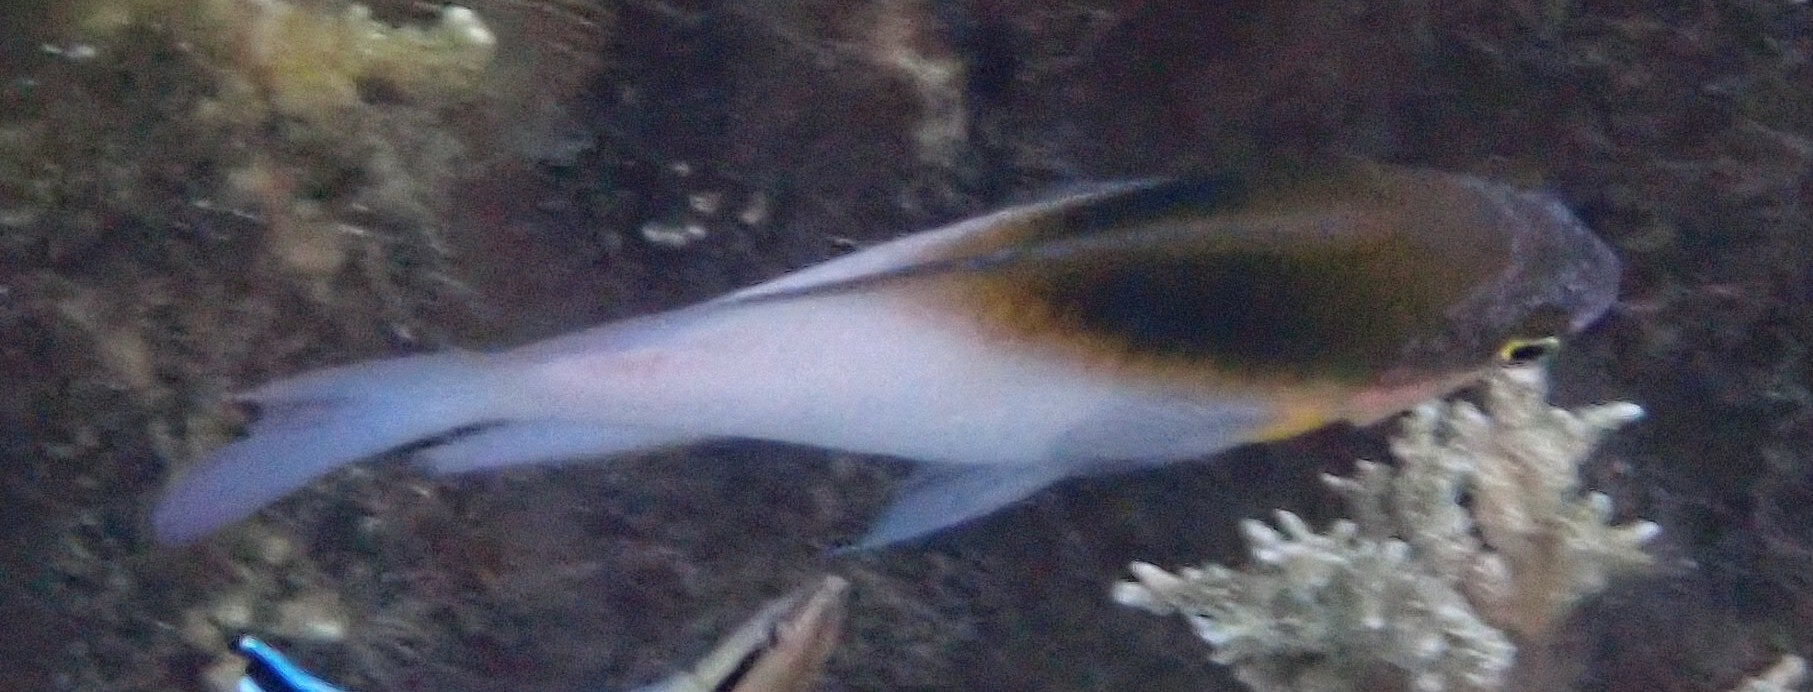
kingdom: Animalia
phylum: Chordata
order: Perciformes
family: Pomacentridae
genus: Dischistodus
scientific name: Dischistodus melanotus
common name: Black-vent damsel
